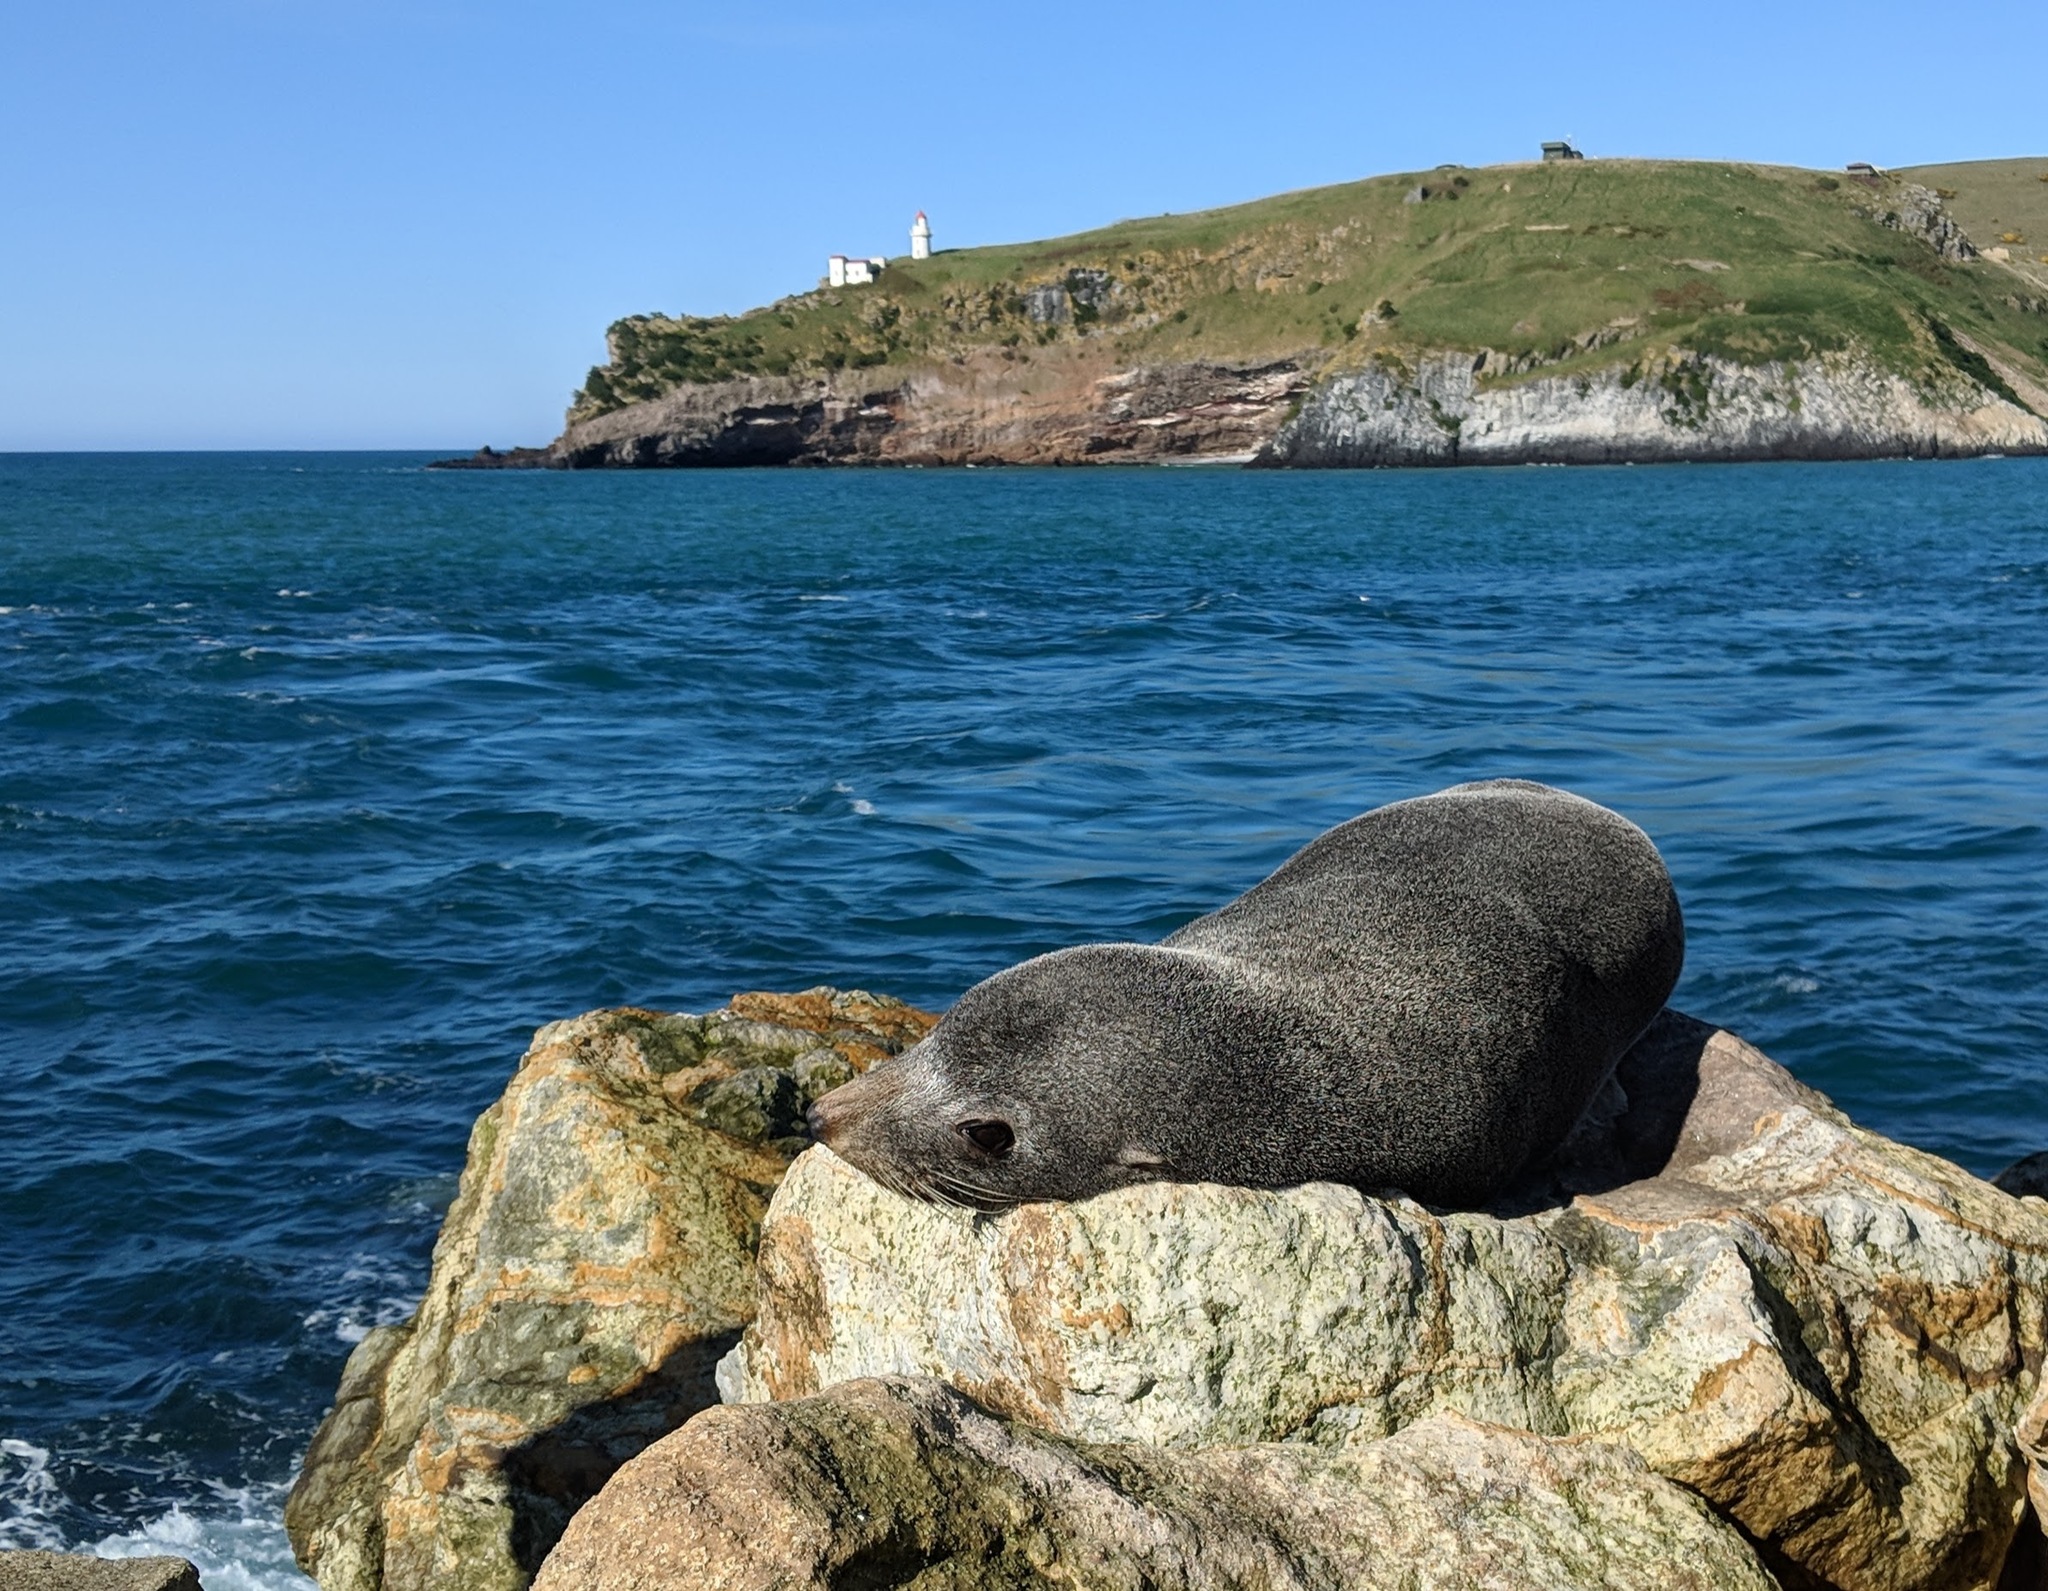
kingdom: Animalia
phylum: Chordata
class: Mammalia
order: Carnivora
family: Otariidae
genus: Arctocephalus
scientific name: Arctocephalus forsteri
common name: New zealand fur seal
